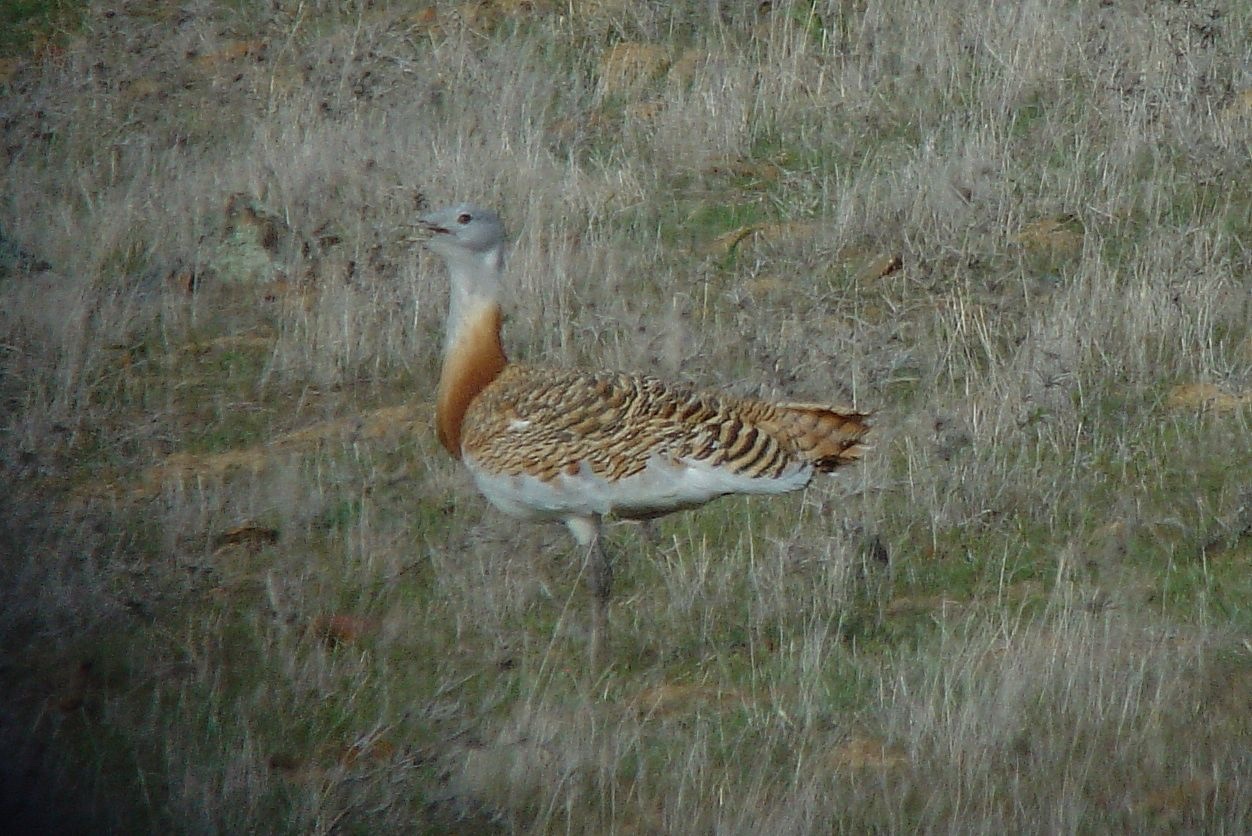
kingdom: Animalia
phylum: Chordata
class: Aves
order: Otidiformes
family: Otididae
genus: Otis
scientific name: Otis tarda
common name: Great bustard
